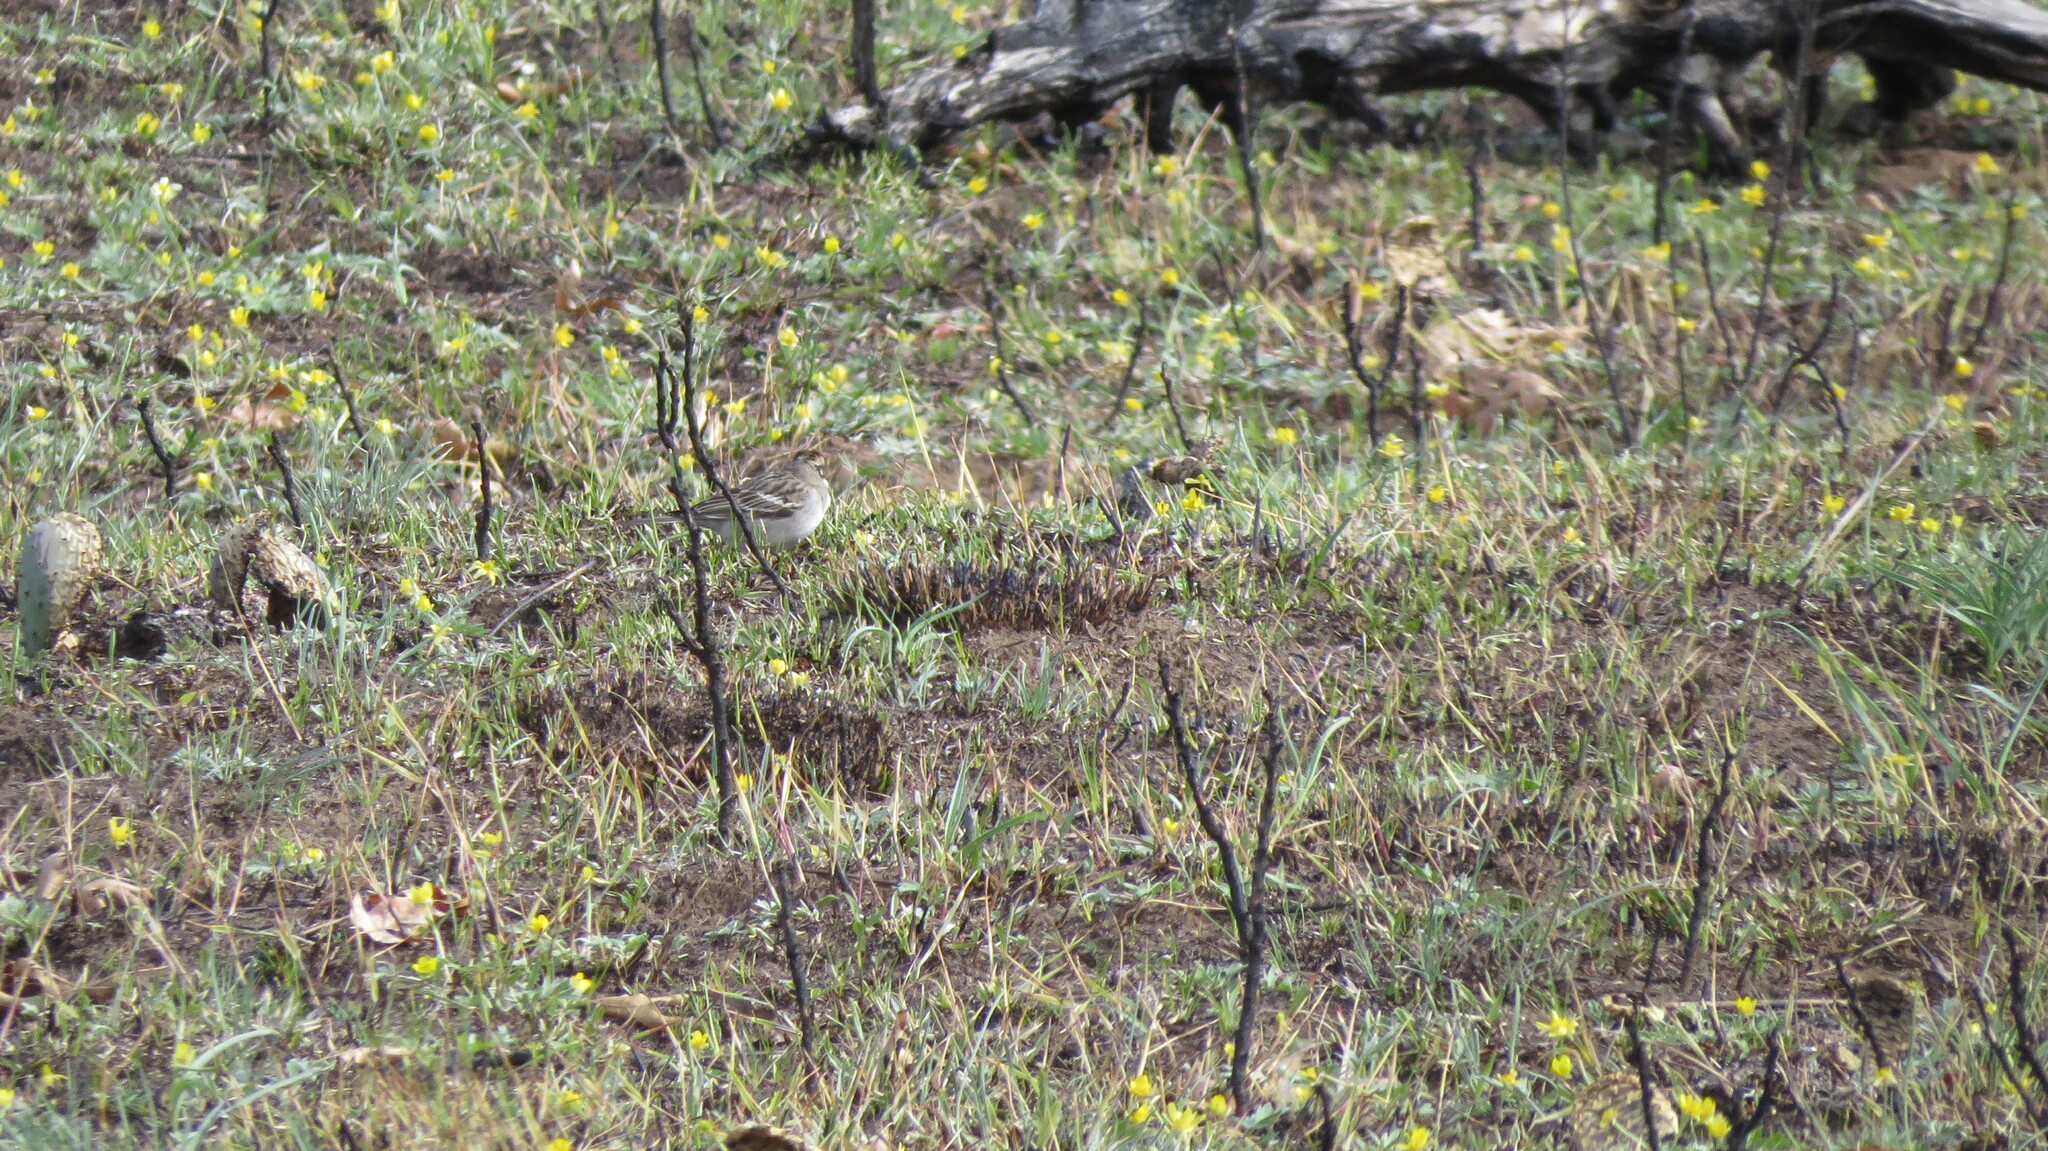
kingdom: Animalia
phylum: Chordata
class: Aves
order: Passeriformes
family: Passerellidae
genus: Chondestes
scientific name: Chondestes grammacus
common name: Lark sparrow
